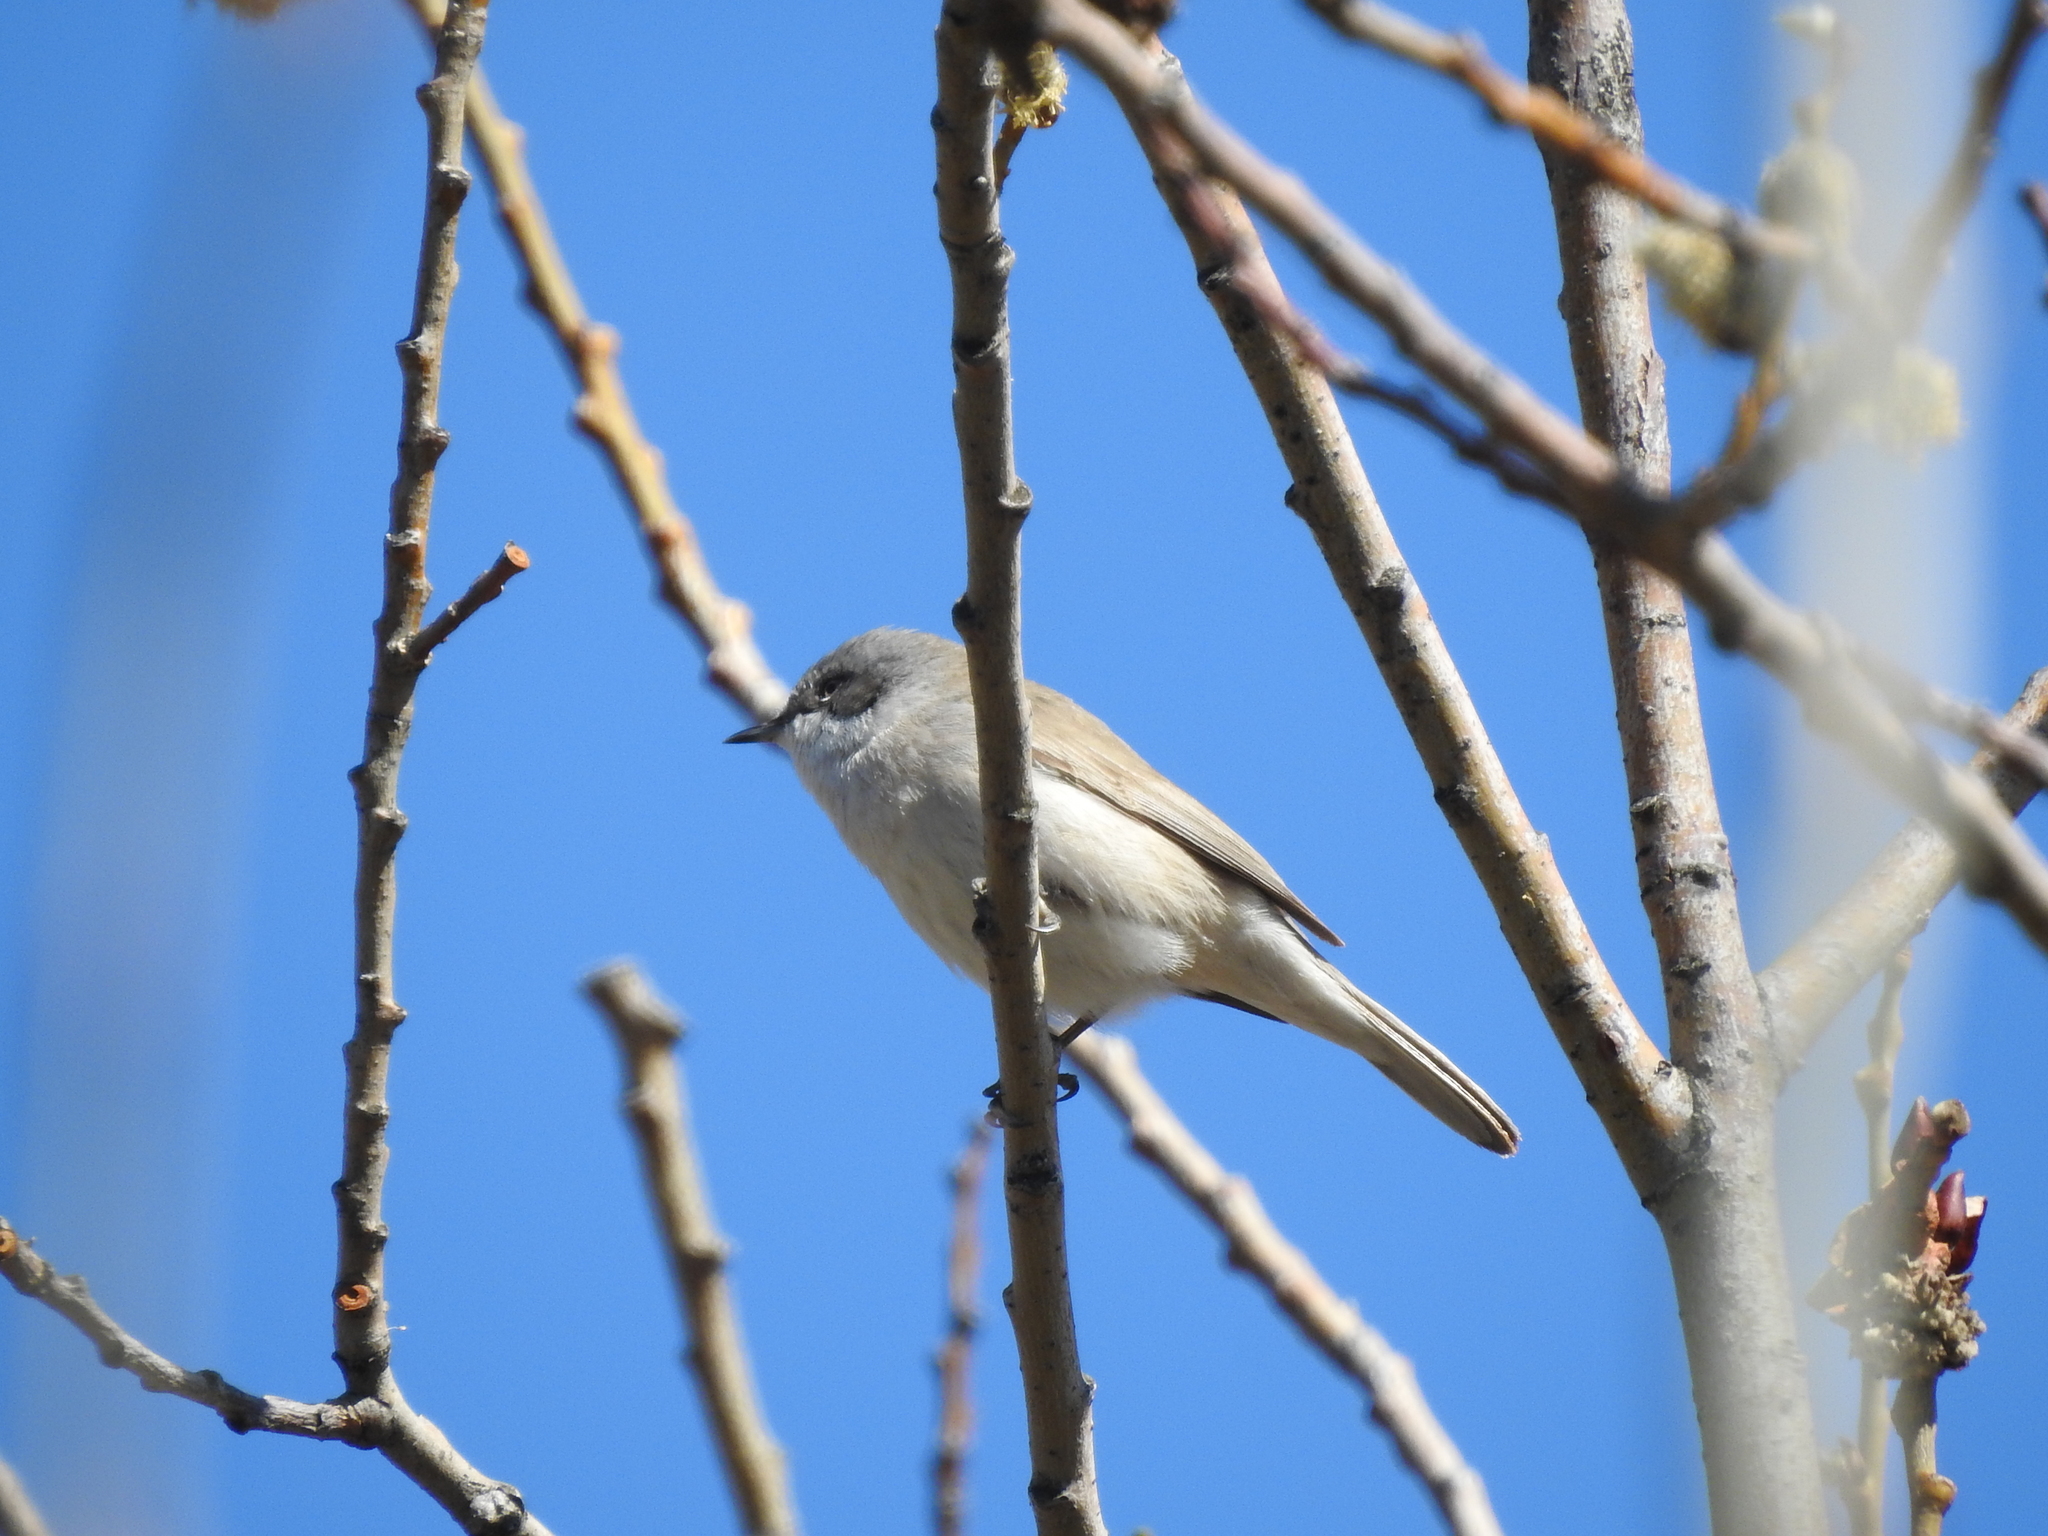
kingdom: Animalia
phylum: Chordata
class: Aves
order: Passeriformes
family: Sylviidae
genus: Sylvia
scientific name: Sylvia curruca
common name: Lesser whitethroat
